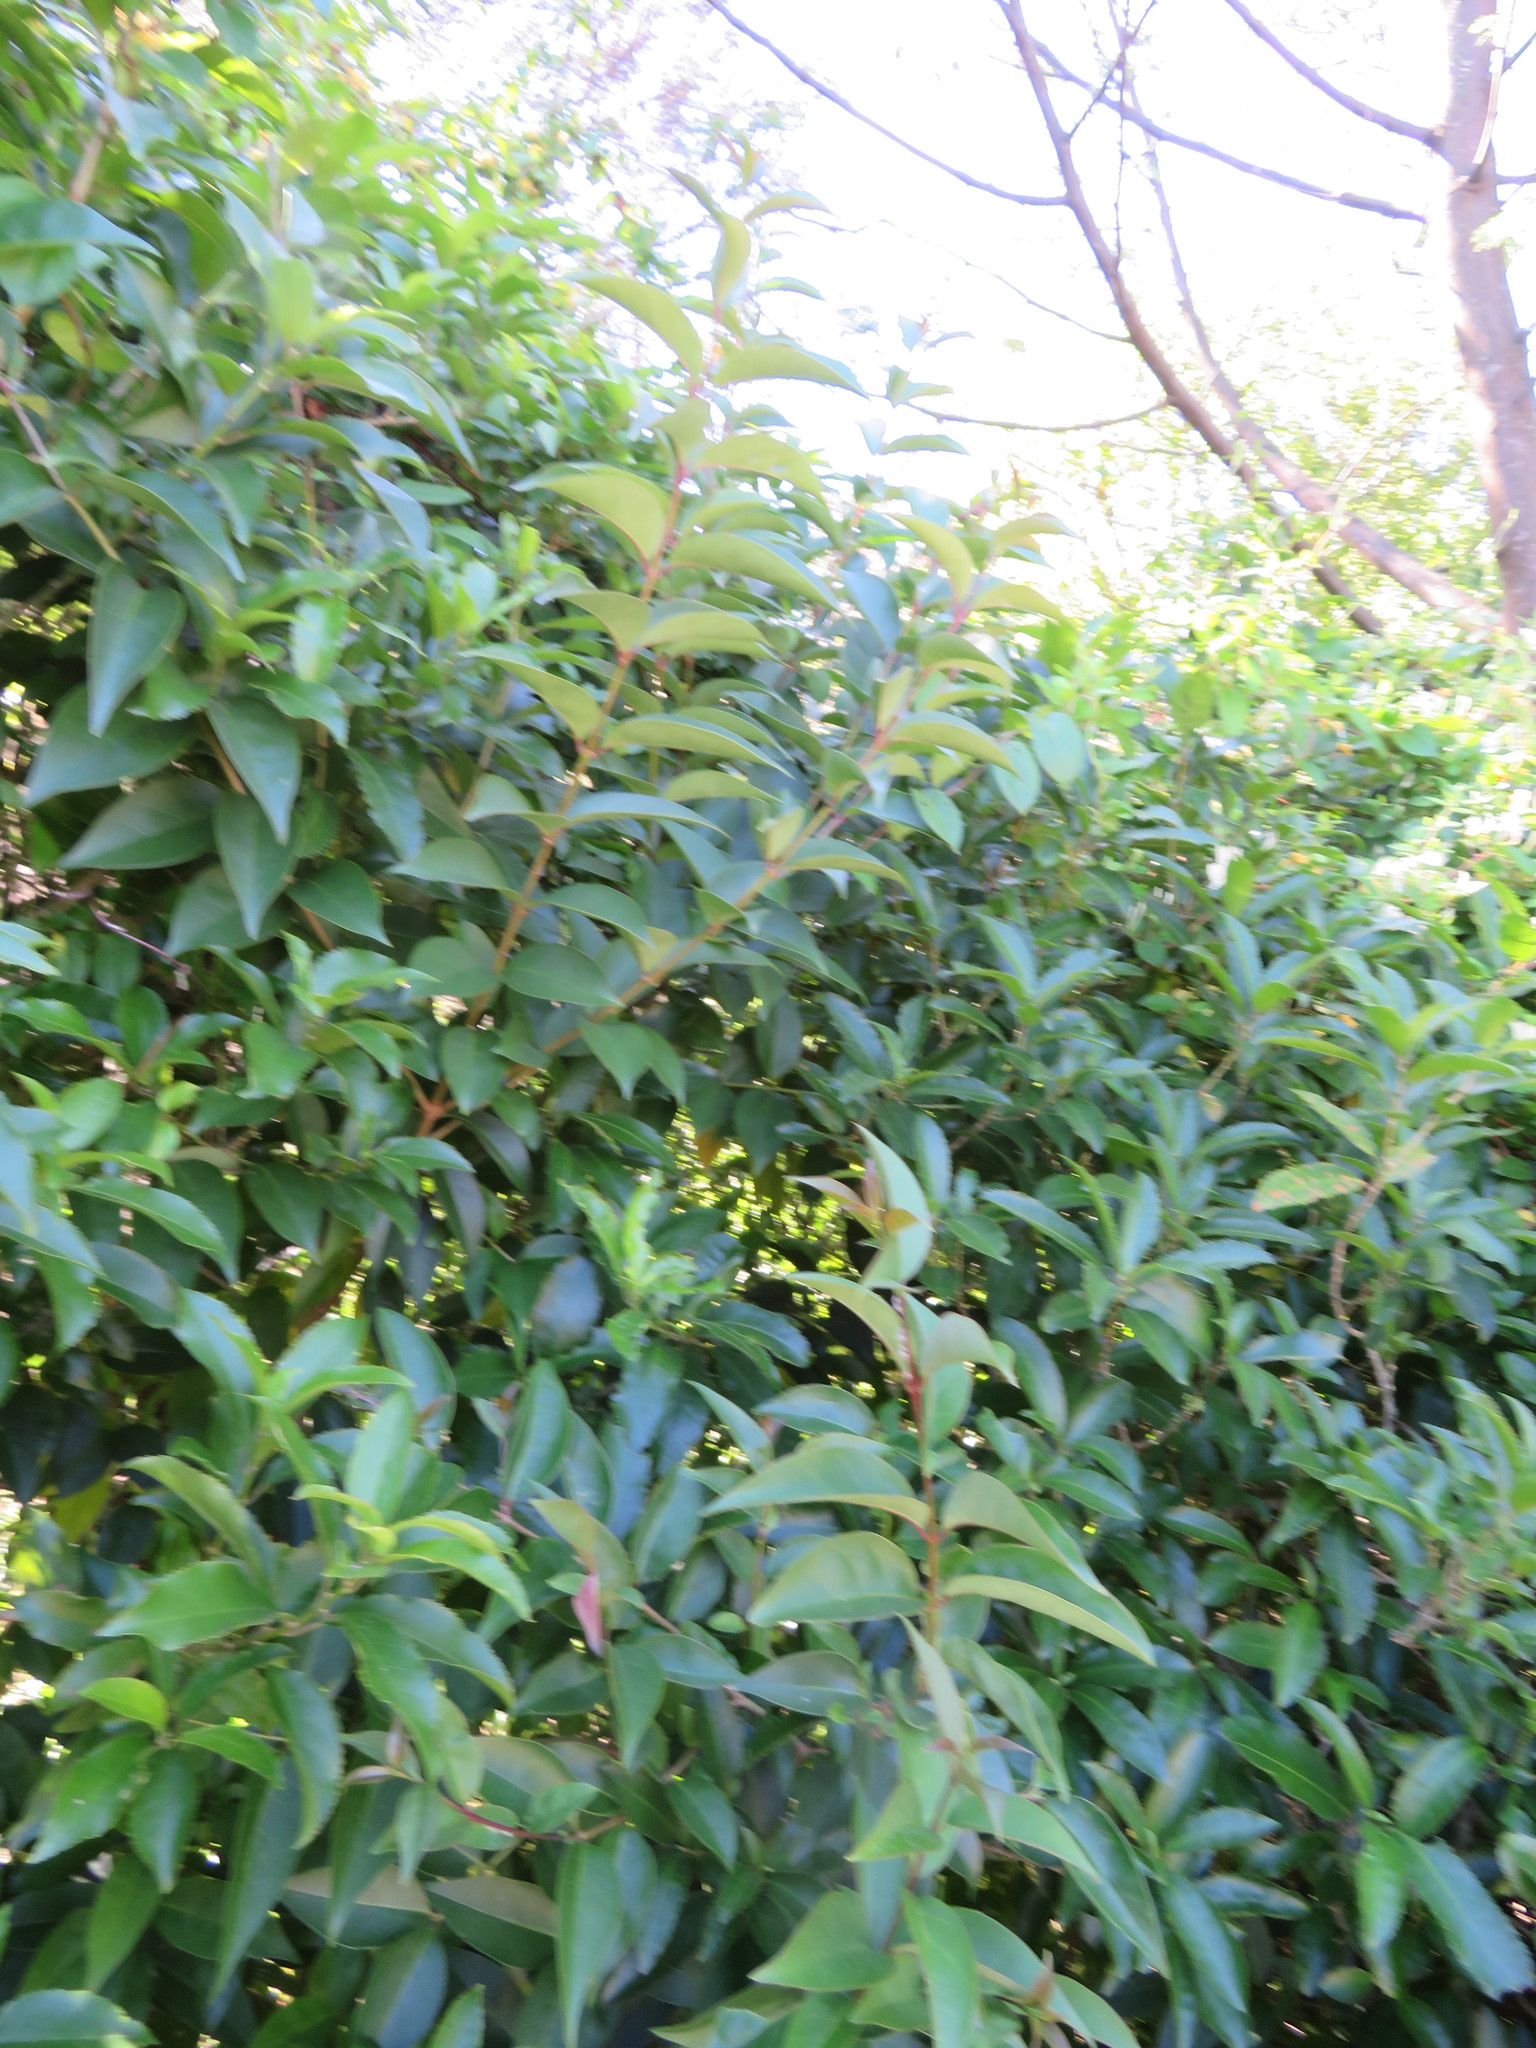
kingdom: Plantae
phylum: Tracheophyta
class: Magnoliopsida
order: Lamiales
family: Oleaceae
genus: Ligustrum
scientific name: Ligustrum lucidum
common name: Glossy privet
